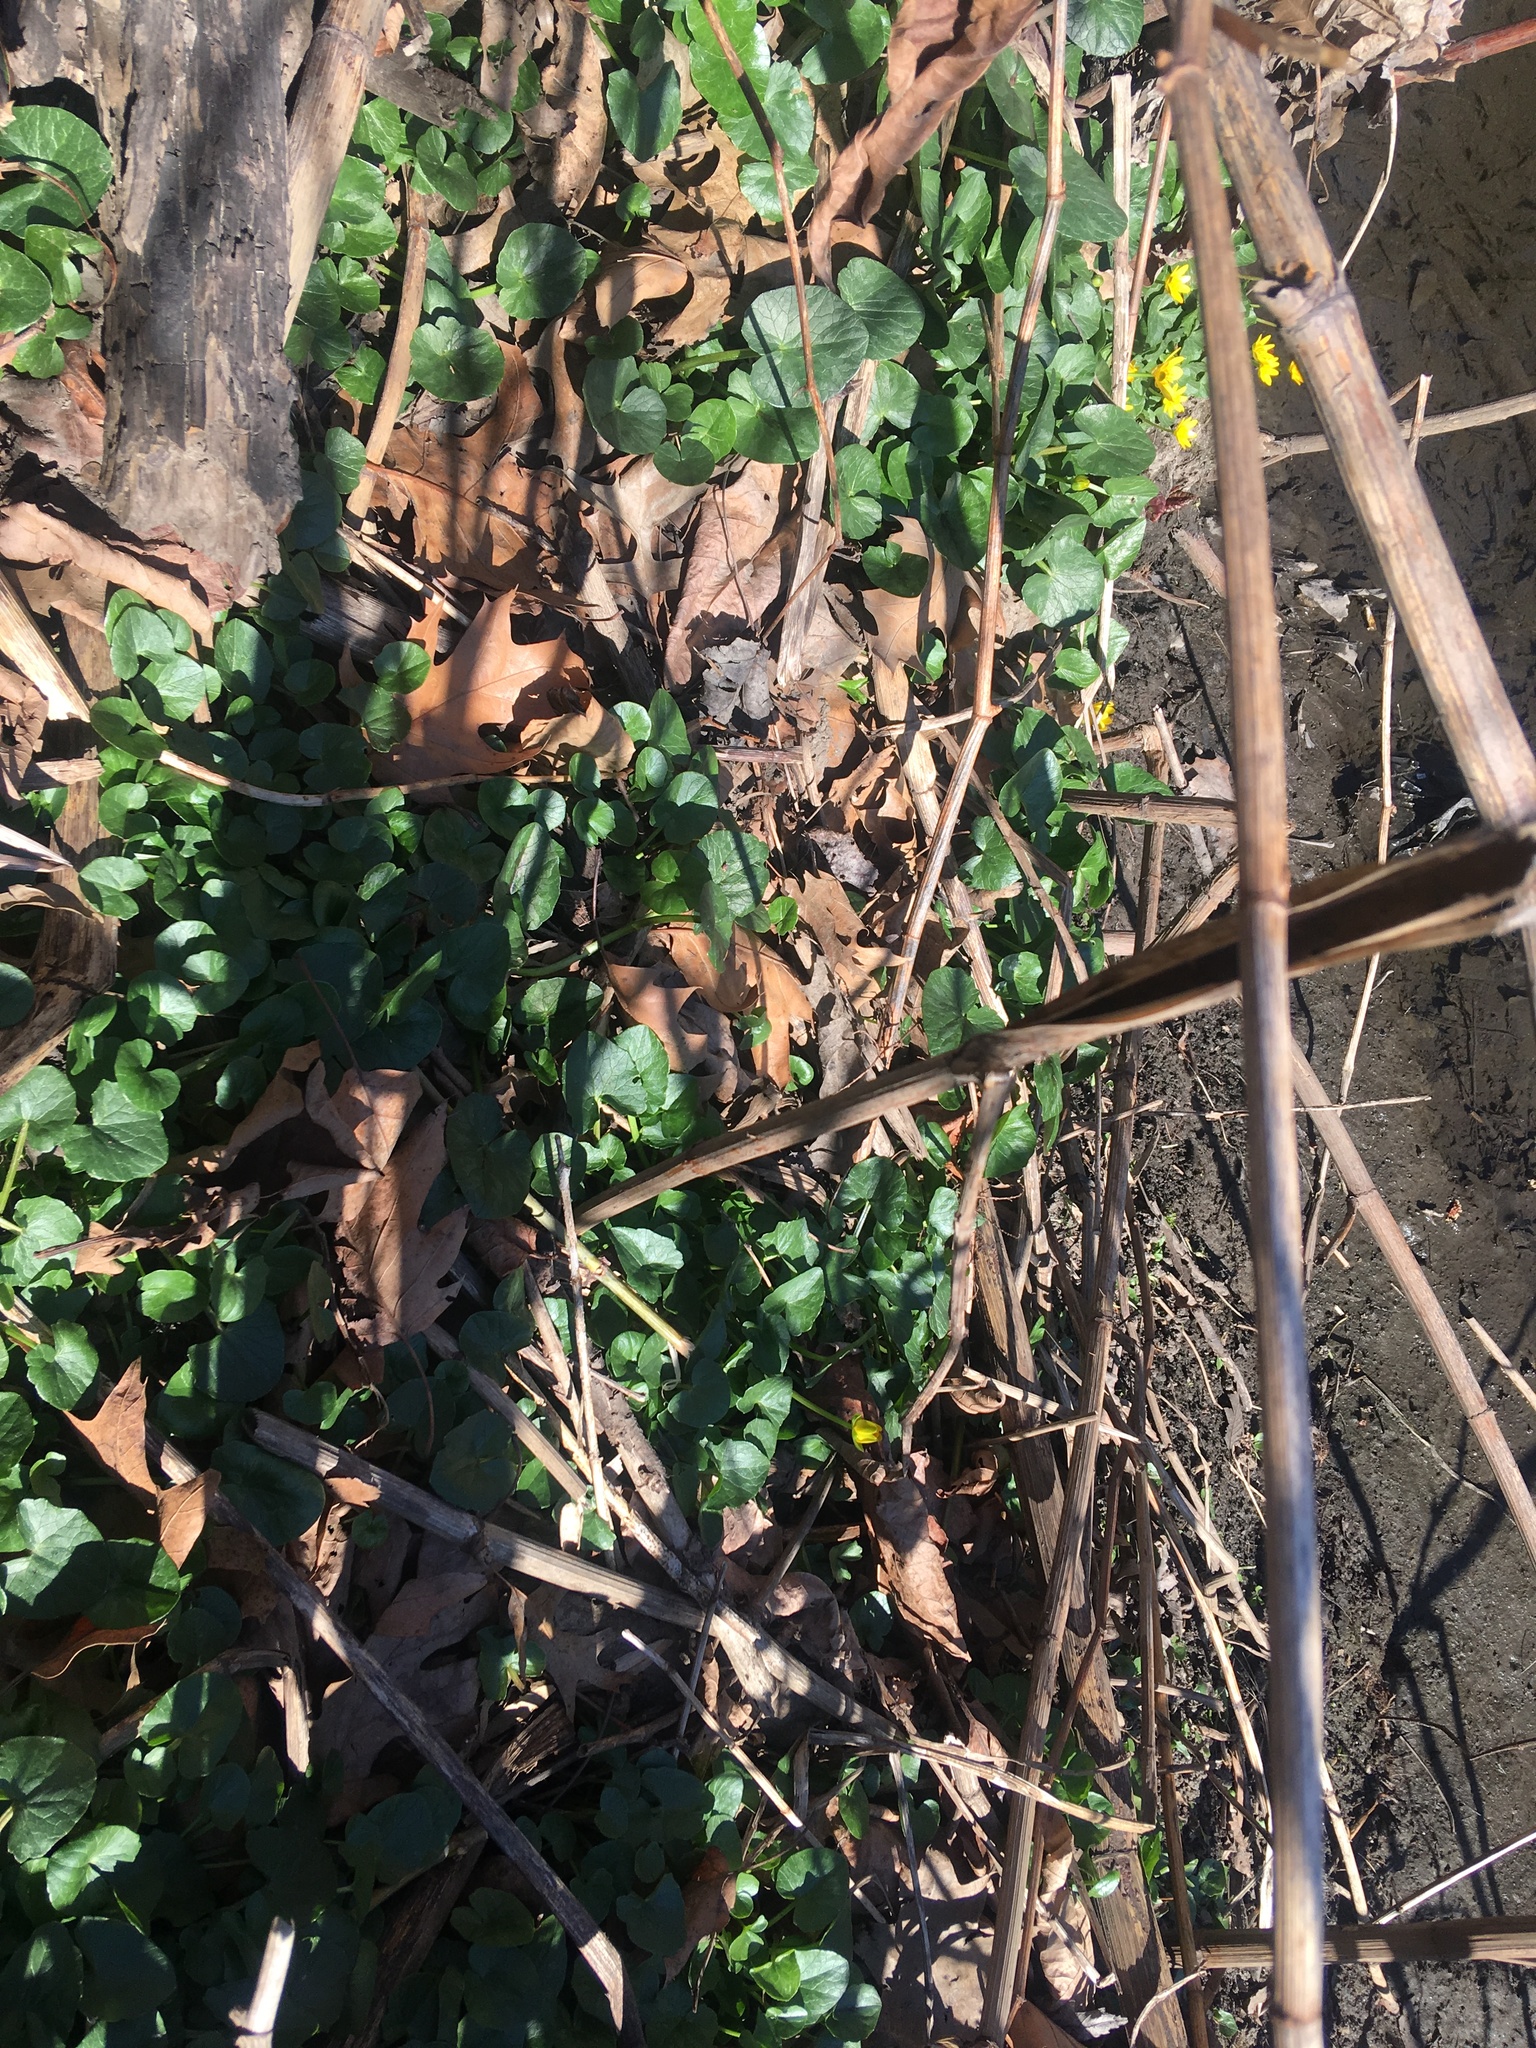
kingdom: Plantae
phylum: Tracheophyta
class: Magnoliopsida
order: Ranunculales
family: Ranunculaceae
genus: Ficaria
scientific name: Ficaria verna
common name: Lesser celandine
